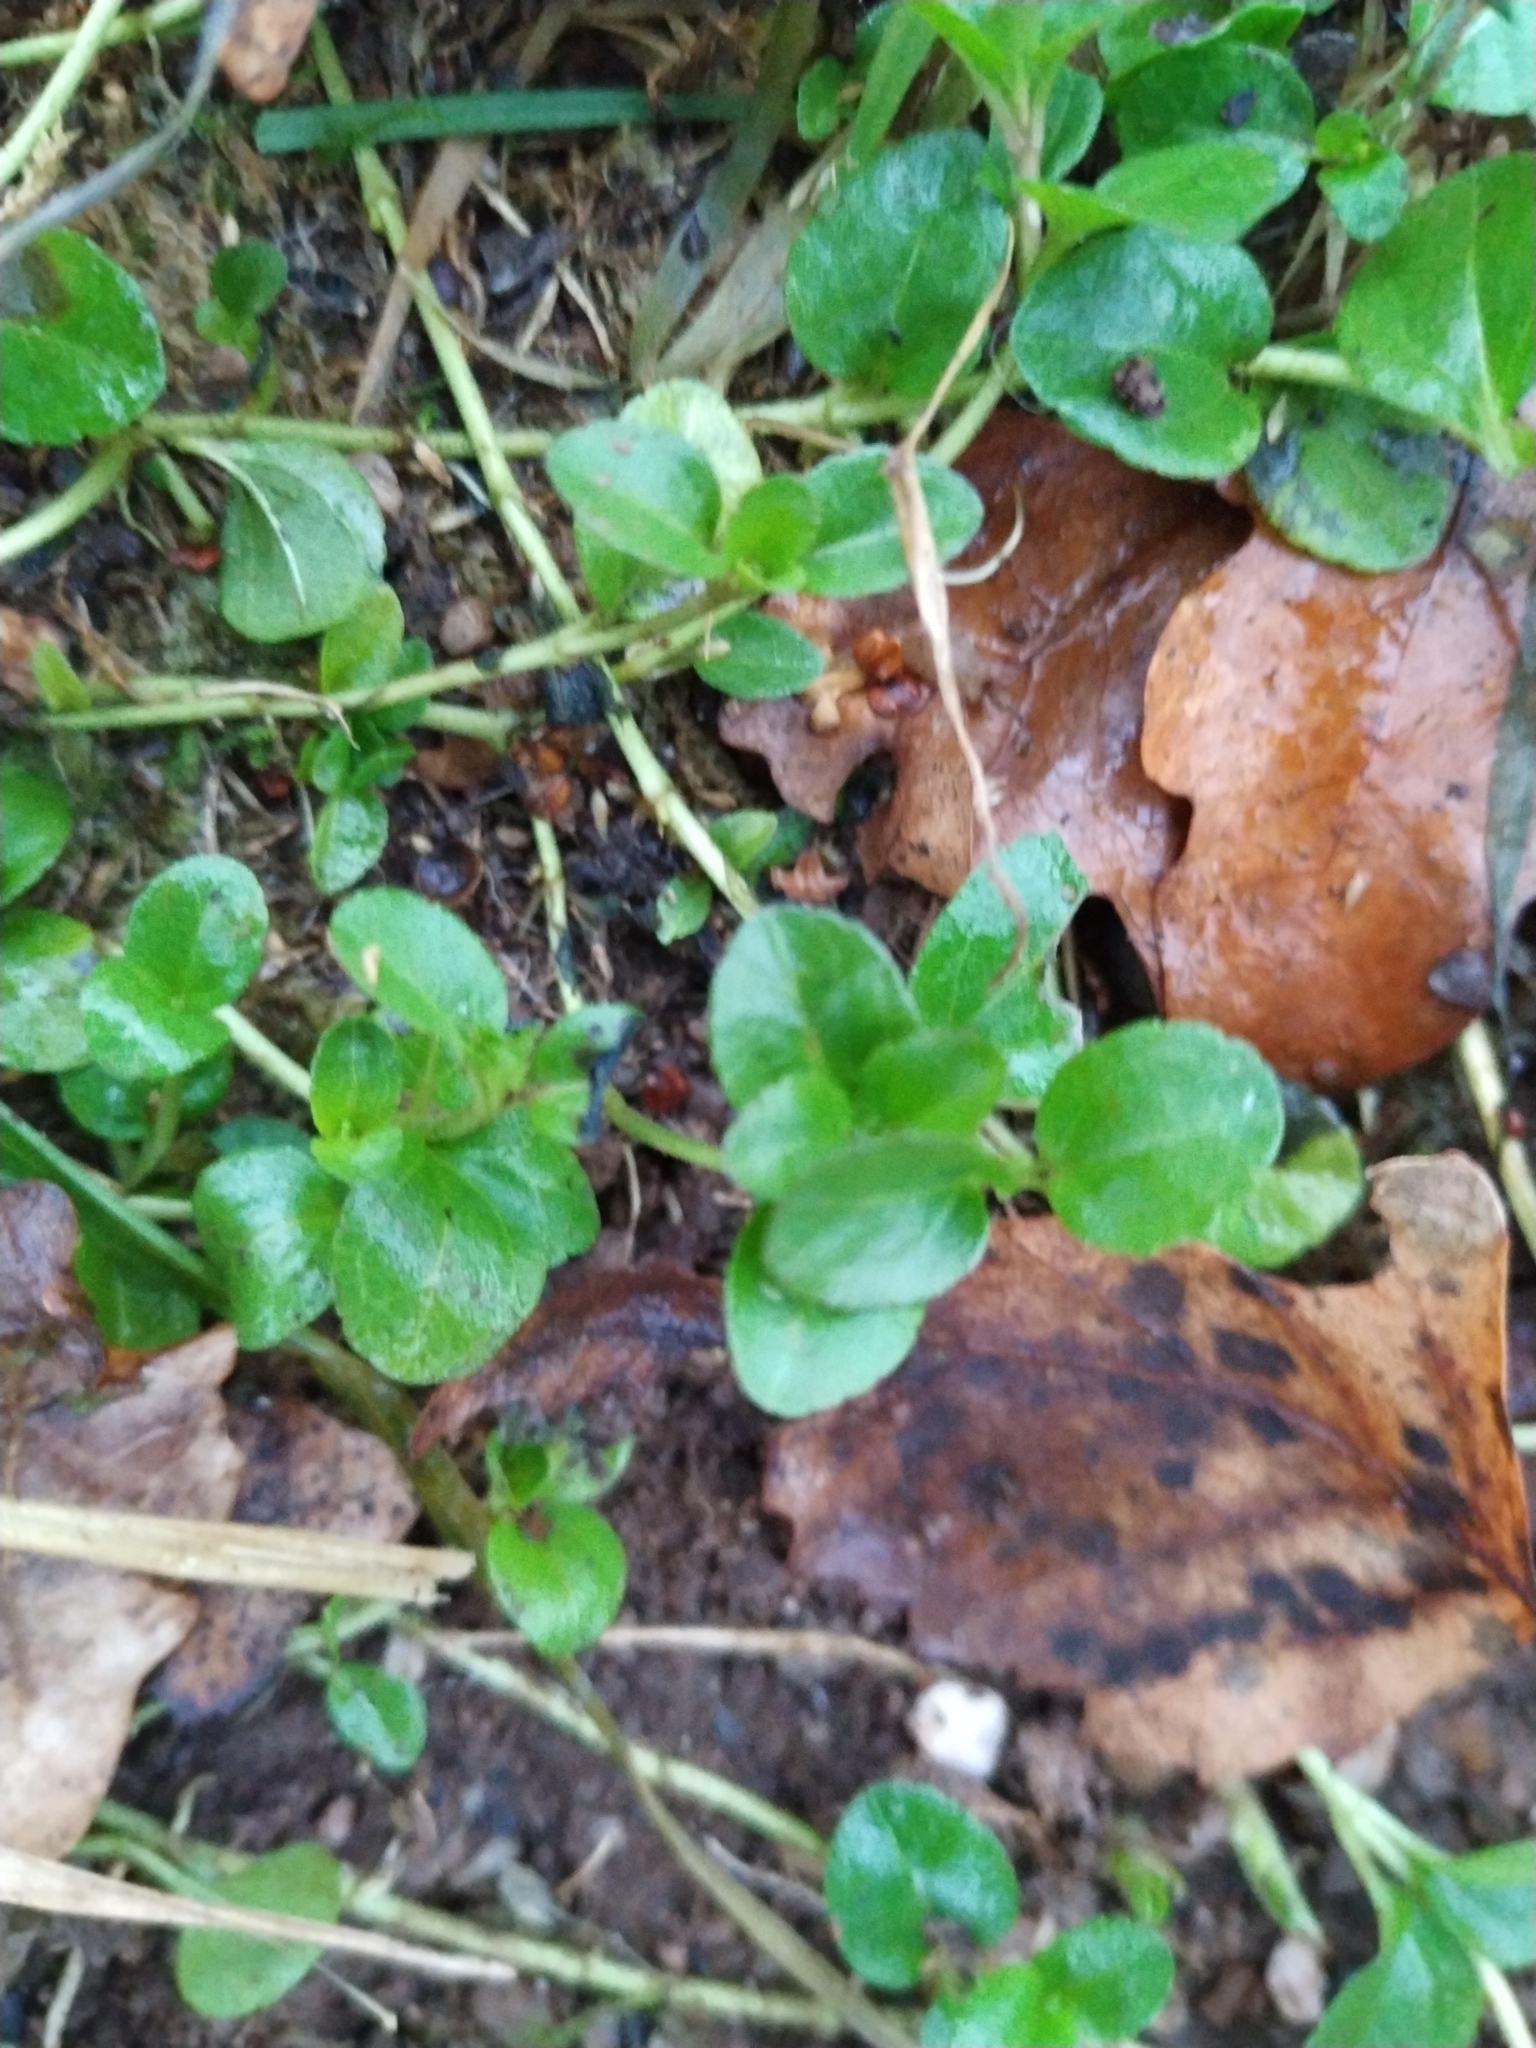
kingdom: Plantae
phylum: Tracheophyta
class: Magnoliopsida
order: Lamiales
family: Plantaginaceae
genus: Veronica
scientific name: Veronica serpyllifolia
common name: Thyme-leaved speedwell
